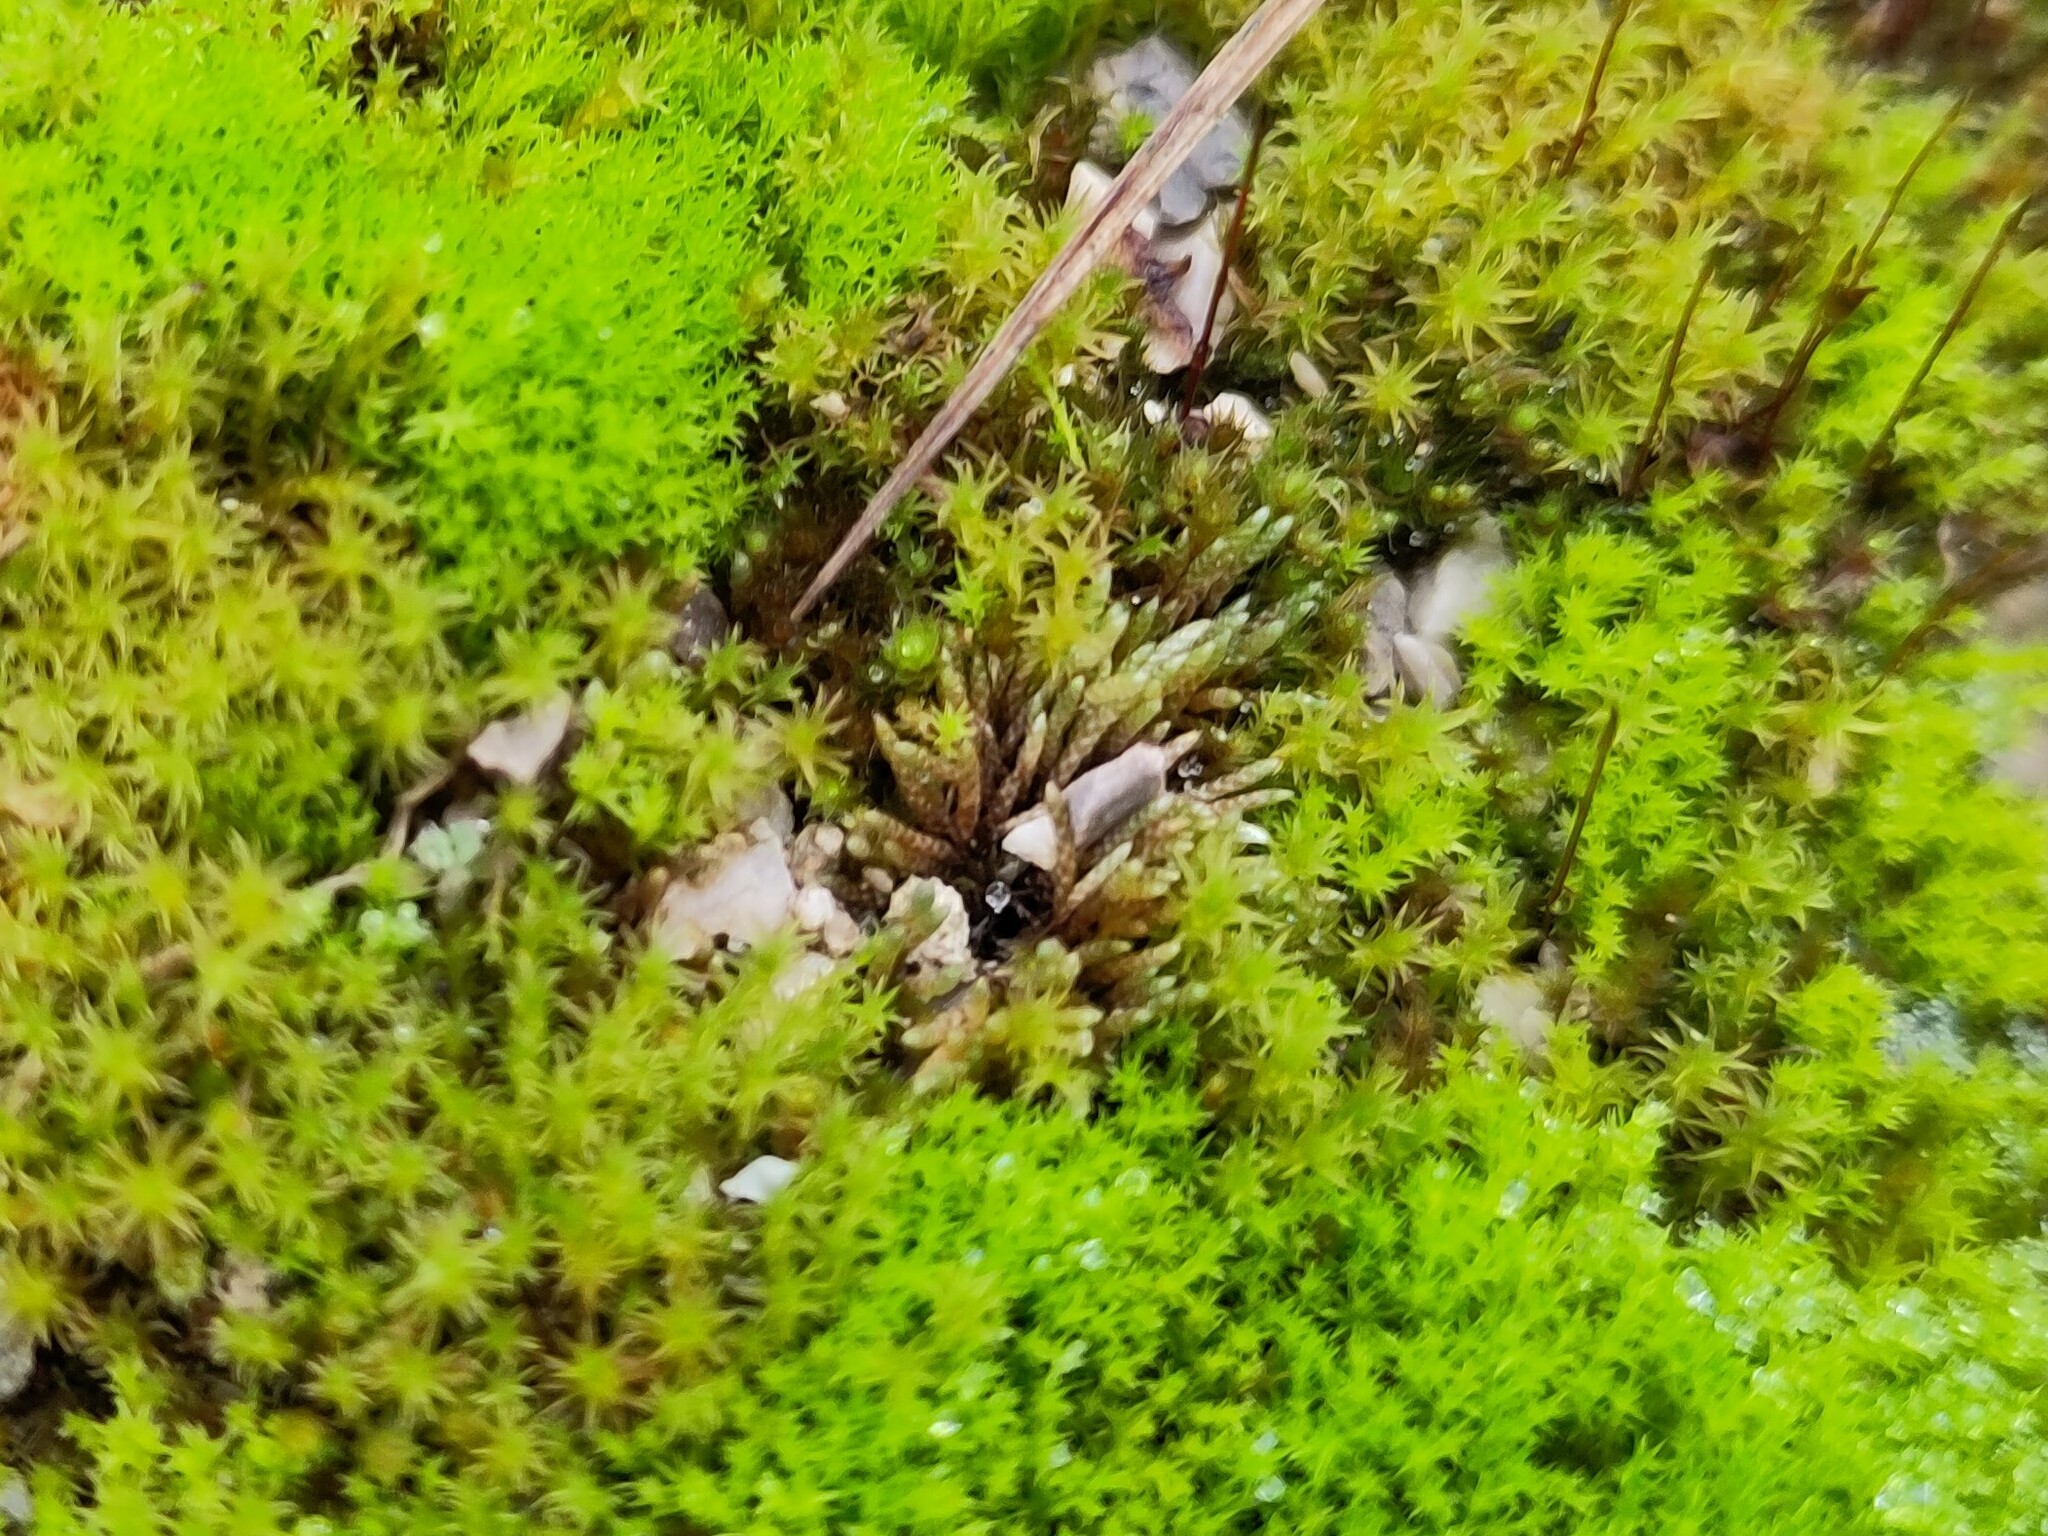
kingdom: Plantae
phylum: Bryophyta
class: Bryopsida
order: Bryales
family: Bryaceae
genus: Bryum
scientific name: Bryum argenteum
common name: Silver-moss
